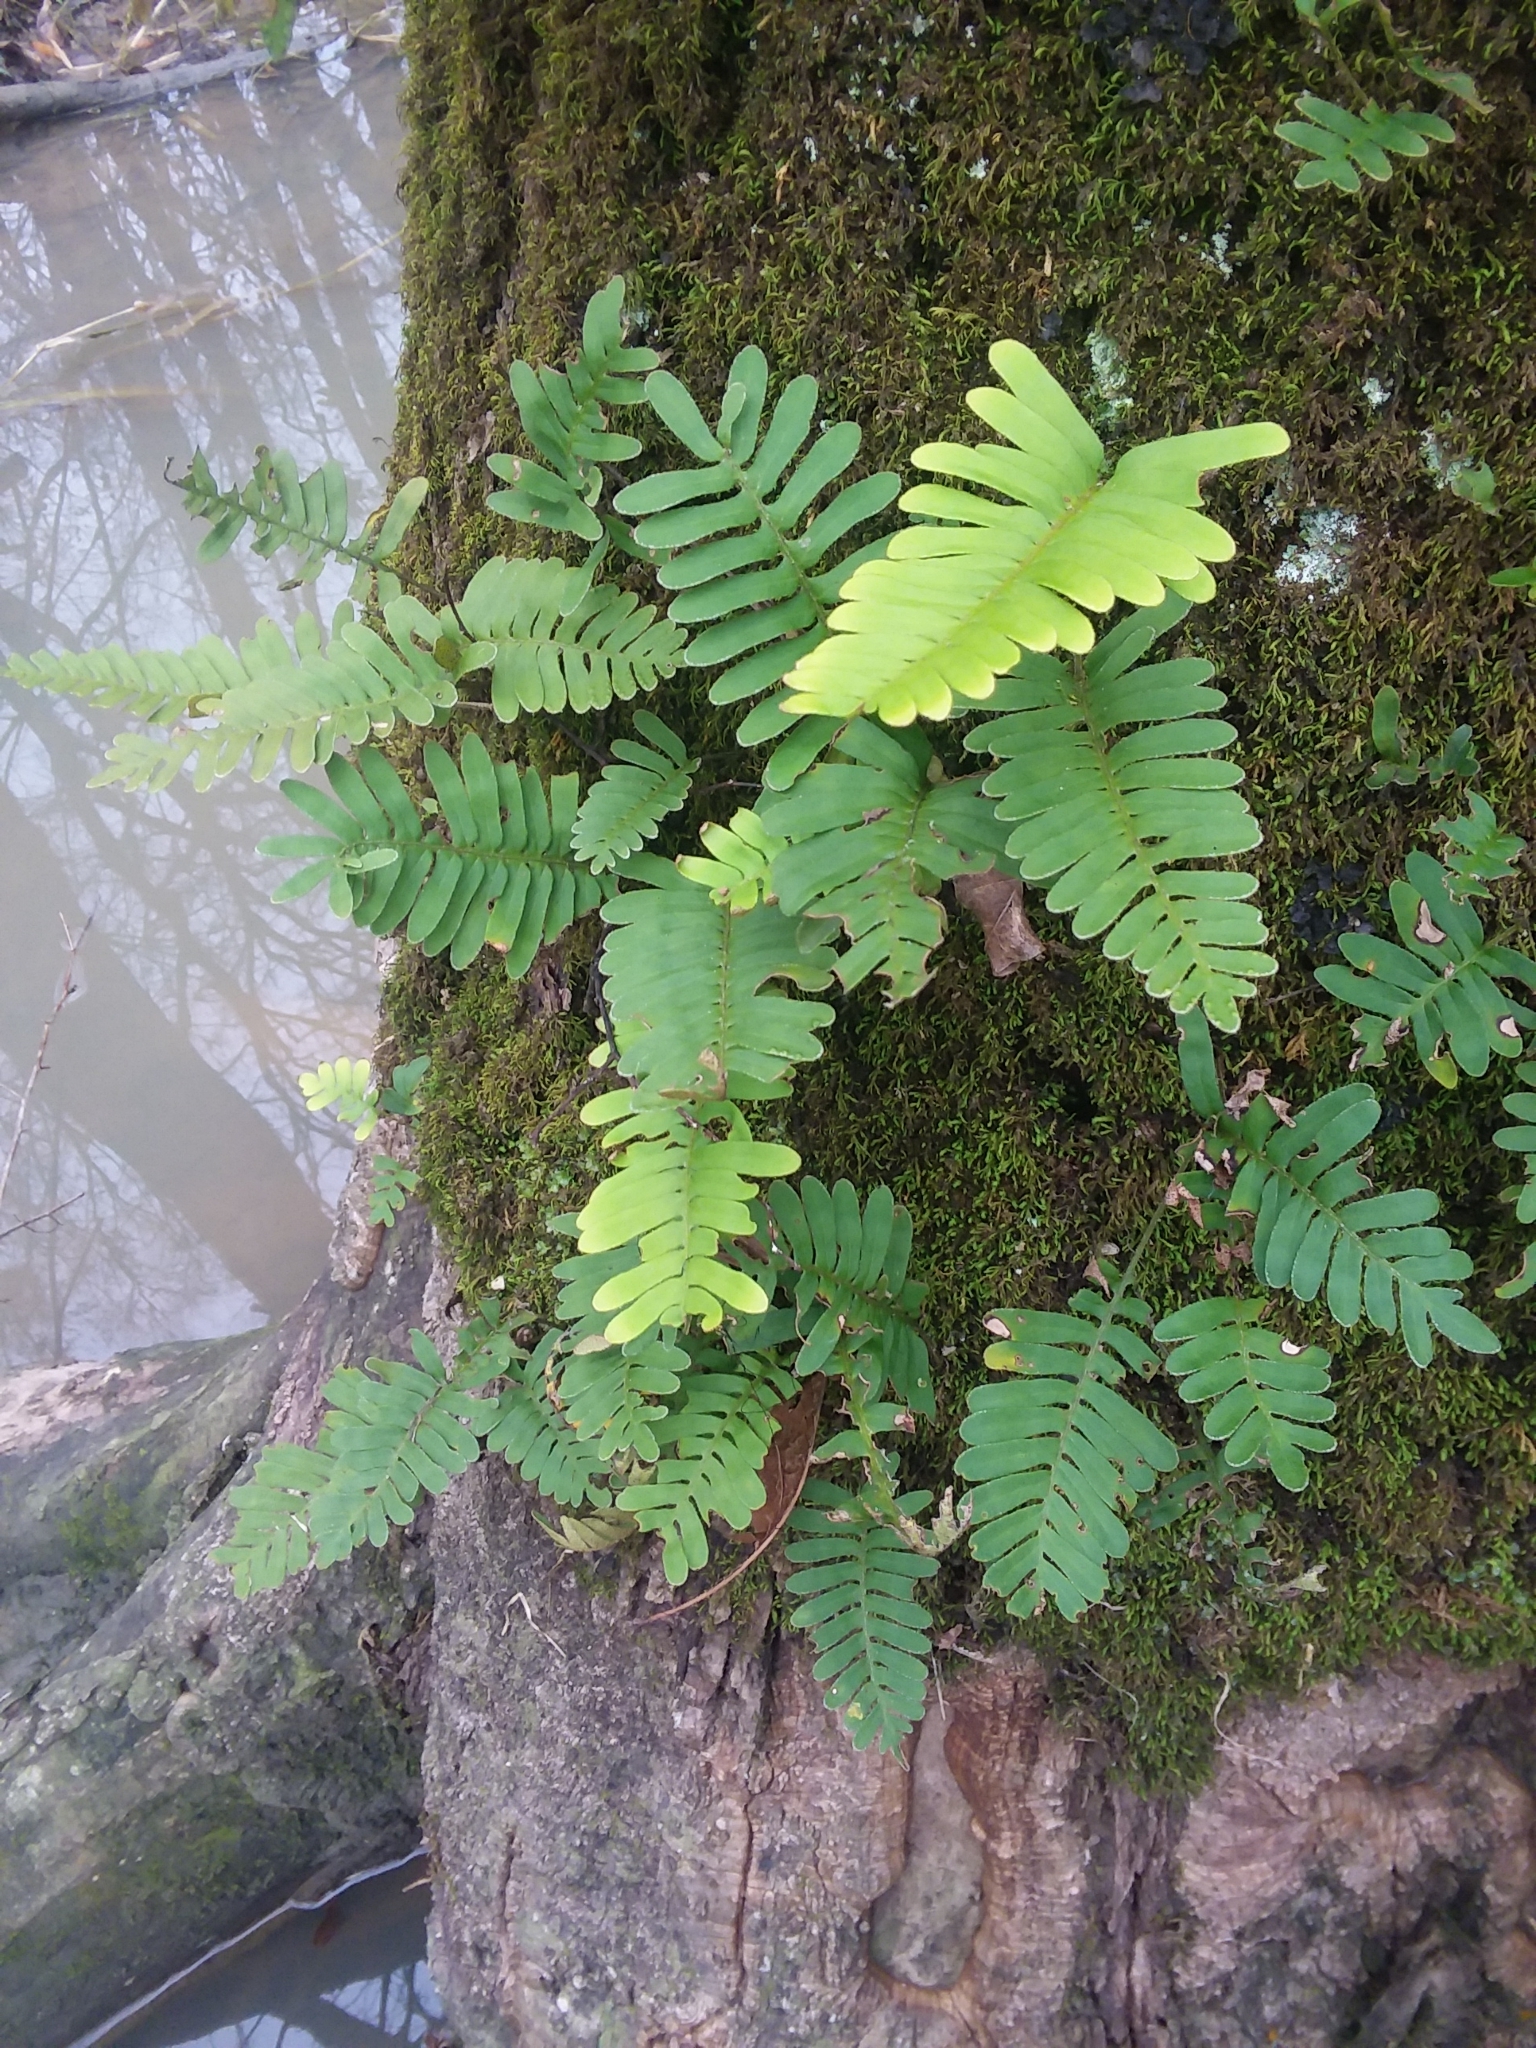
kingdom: Plantae
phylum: Tracheophyta
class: Polypodiopsida
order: Polypodiales
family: Polypodiaceae
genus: Pleopeltis
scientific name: Pleopeltis michauxiana
